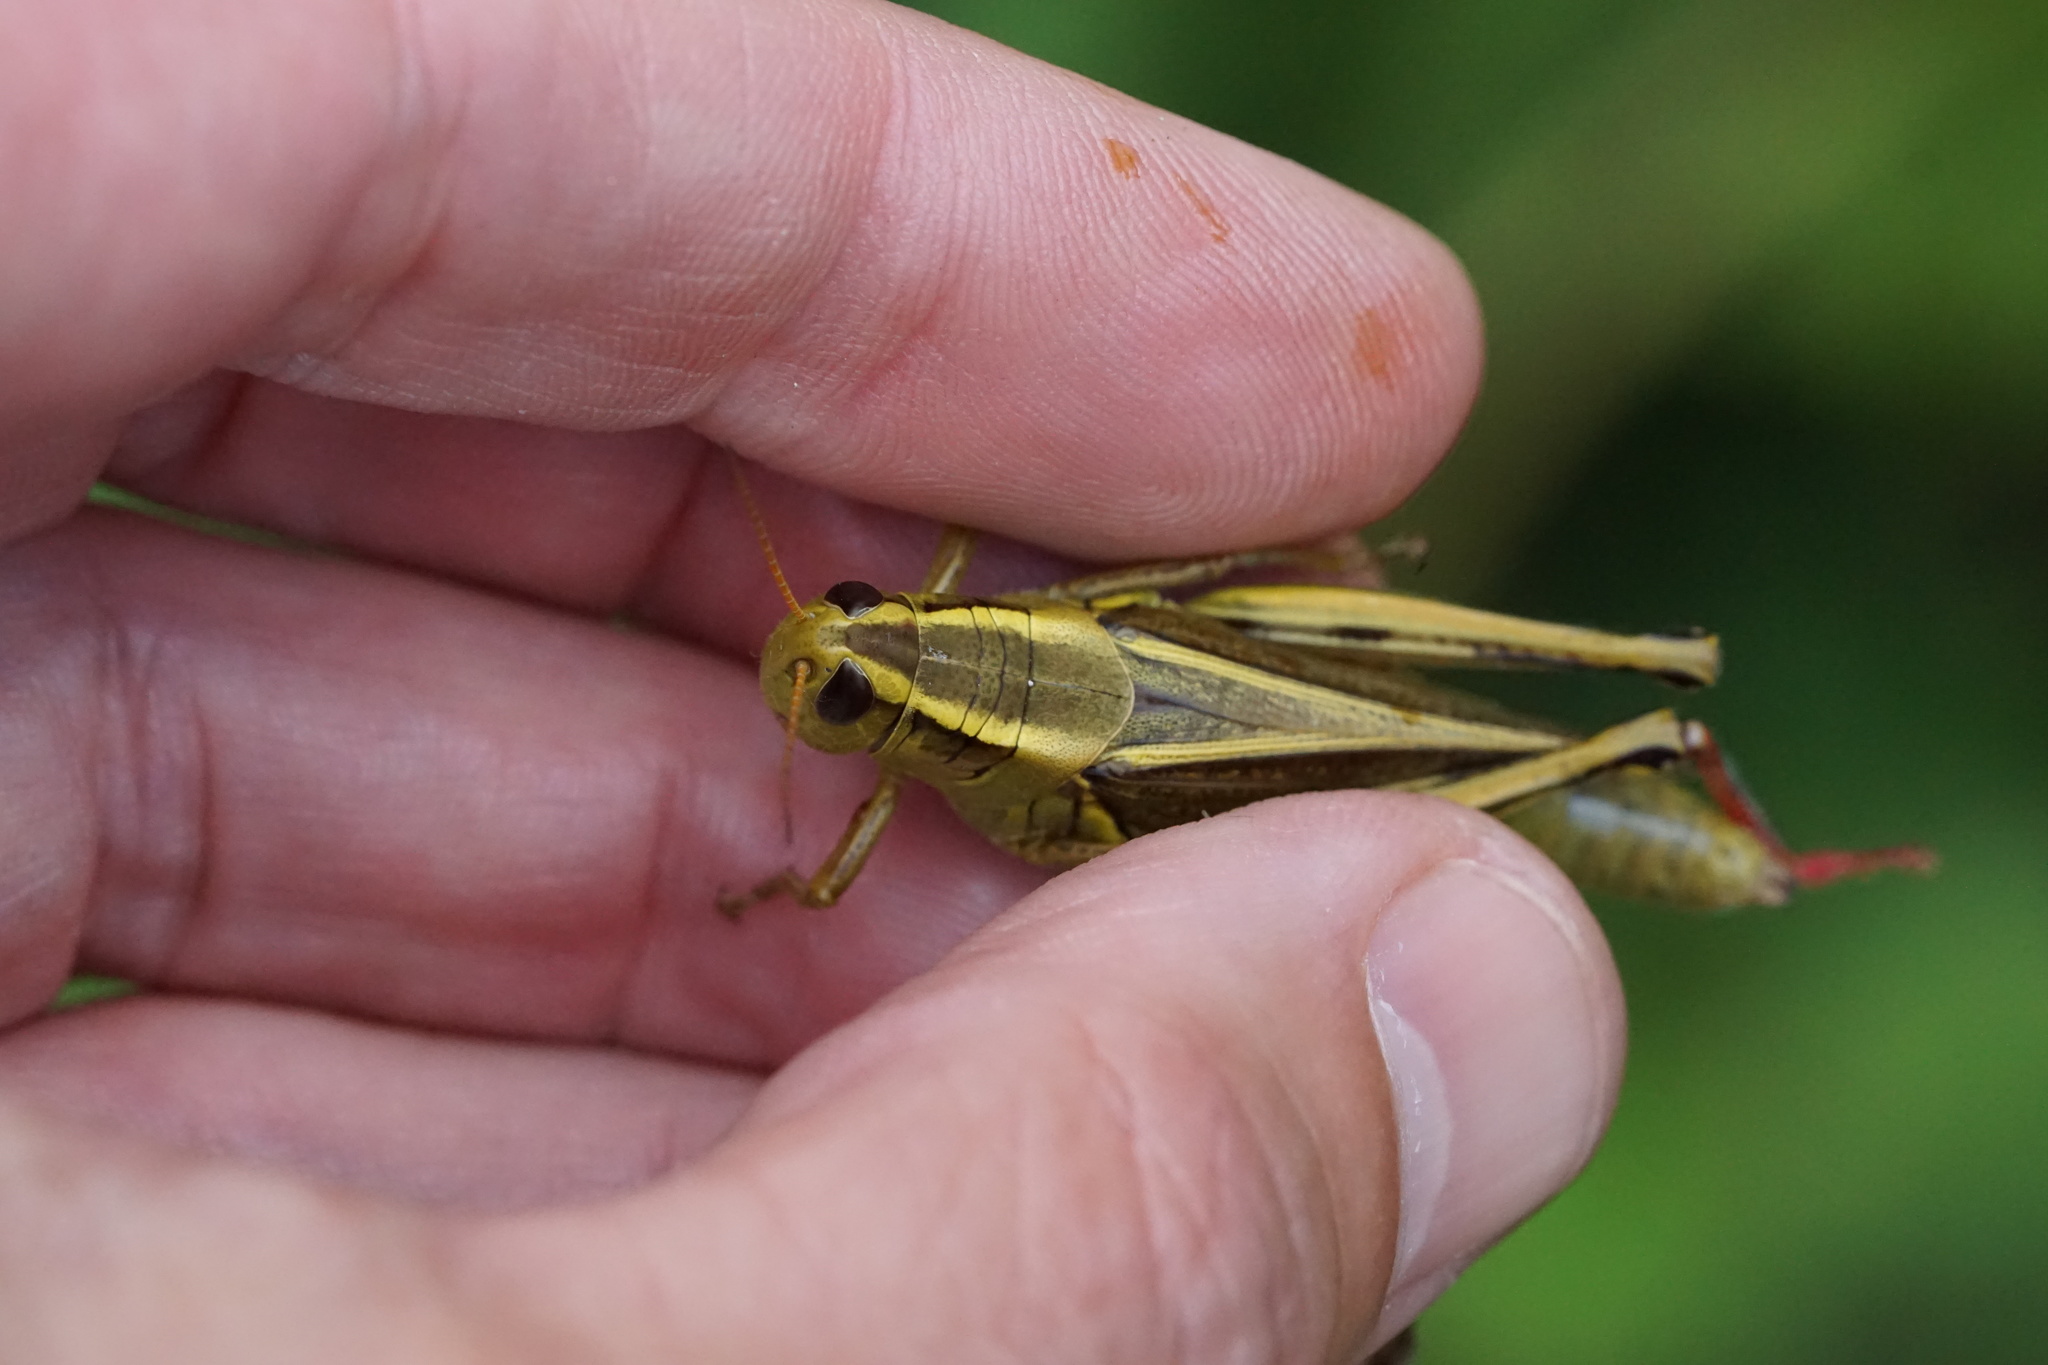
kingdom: Animalia
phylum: Arthropoda
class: Insecta
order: Orthoptera
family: Acrididae
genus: Melanoplus
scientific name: Melanoplus bivittatus
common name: Two-striped grasshopper
